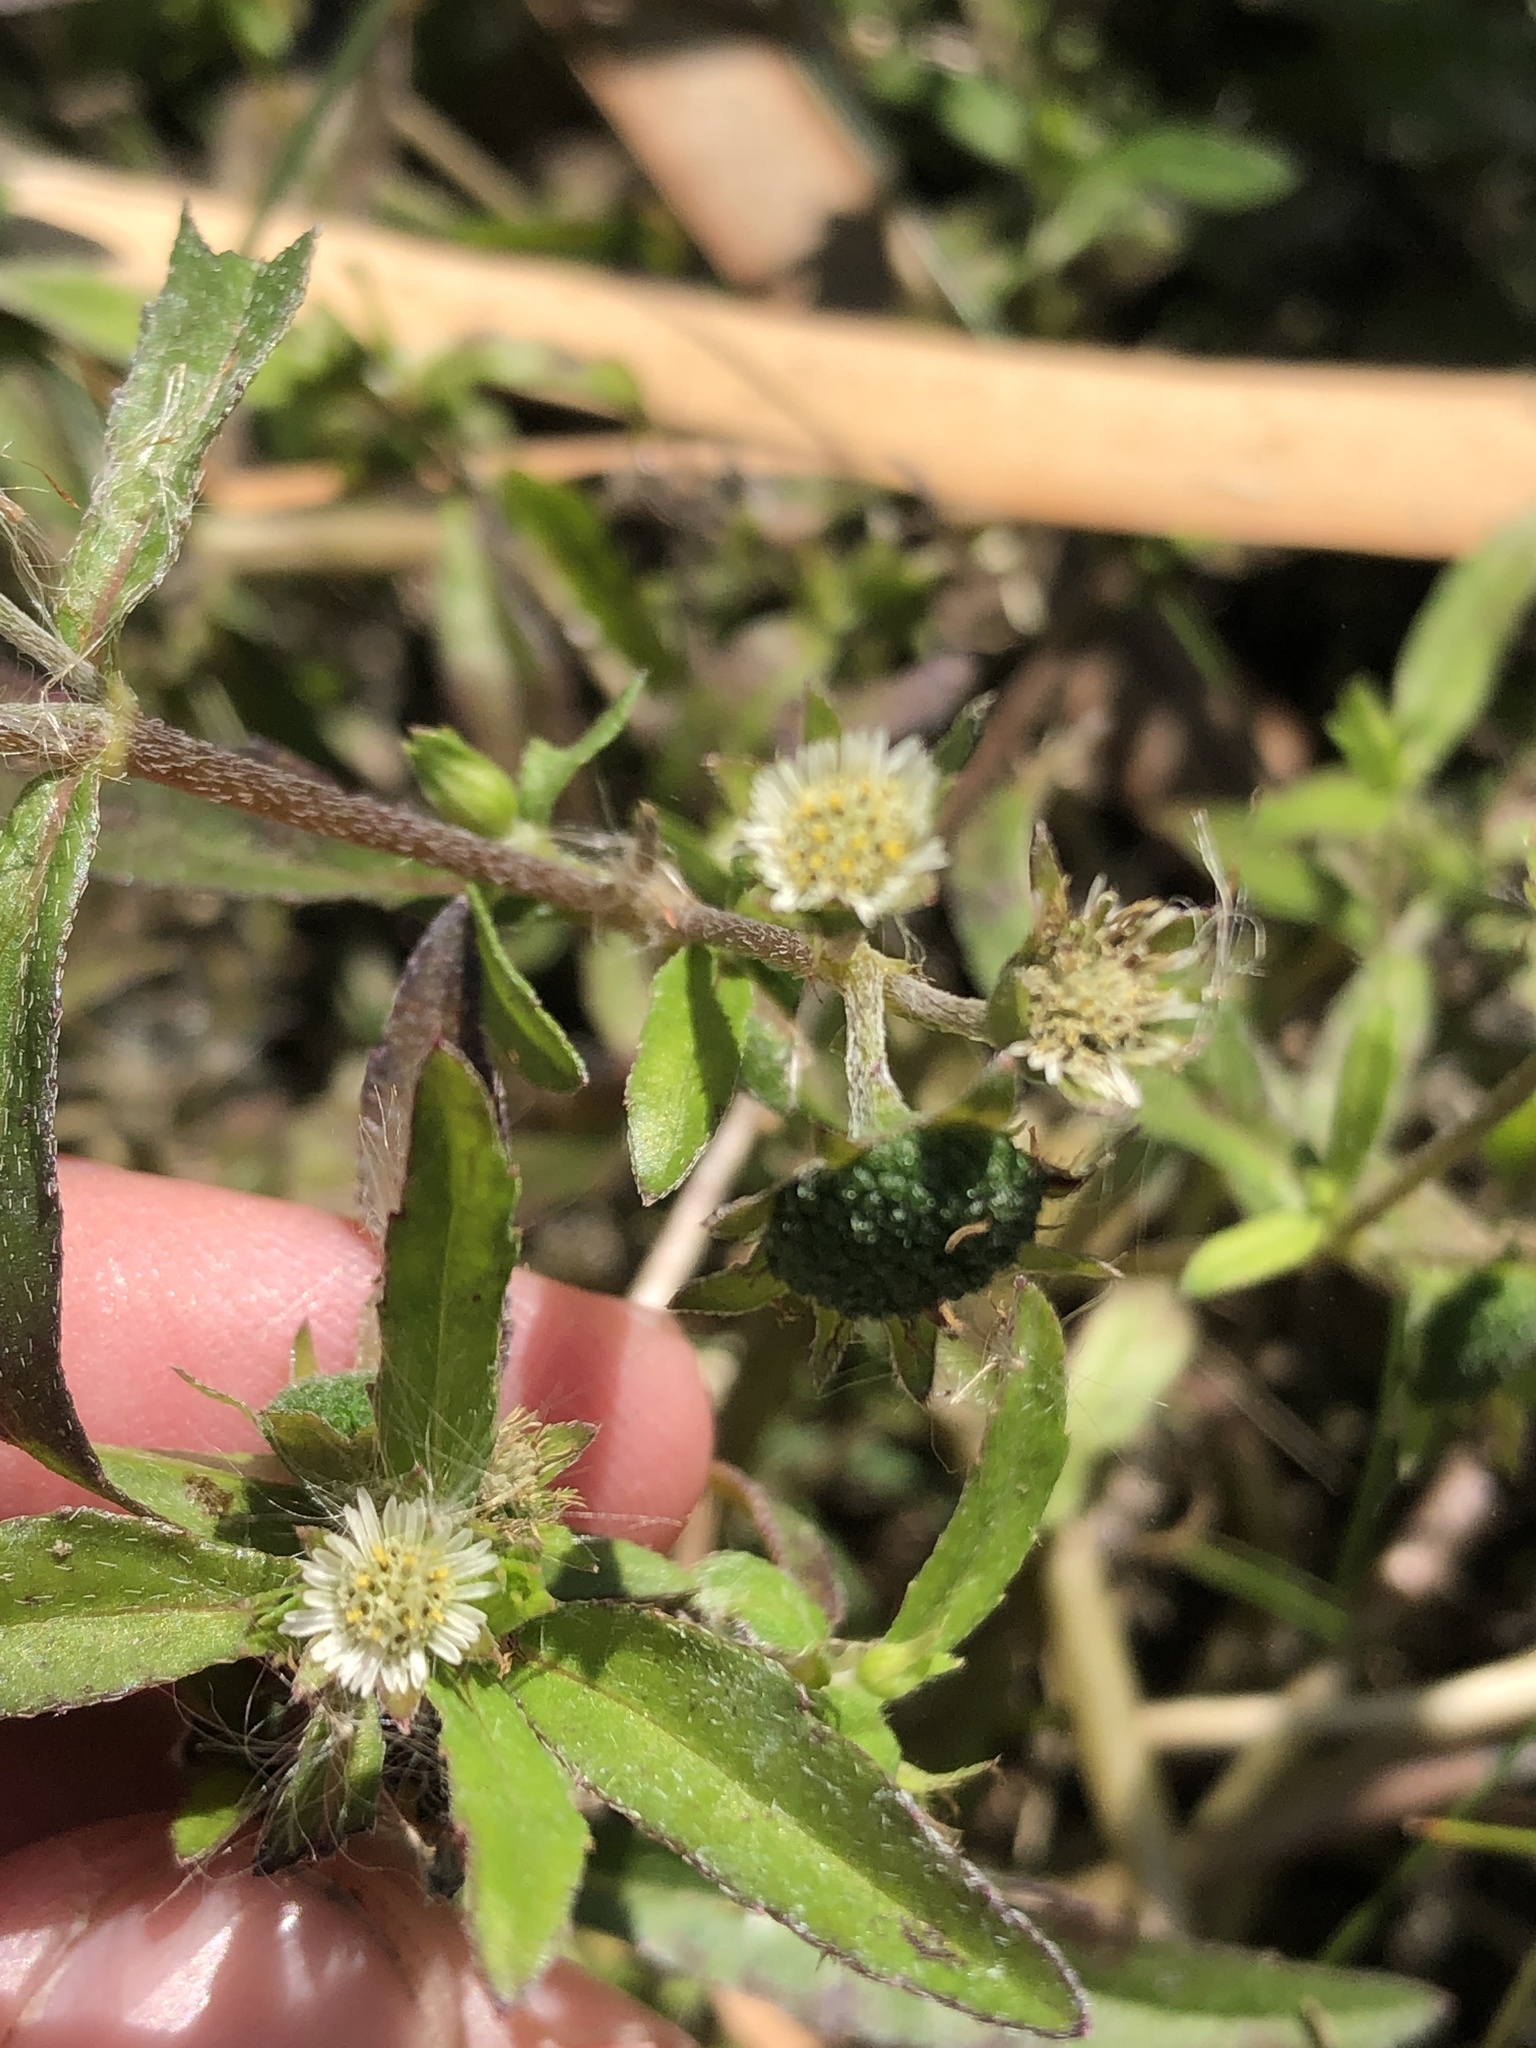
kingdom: Plantae
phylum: Tracheophyta
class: Magnoliopsida
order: Asterales
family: Asteraceae
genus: Eclipta
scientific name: Eclipta prostrata
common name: False daisy
